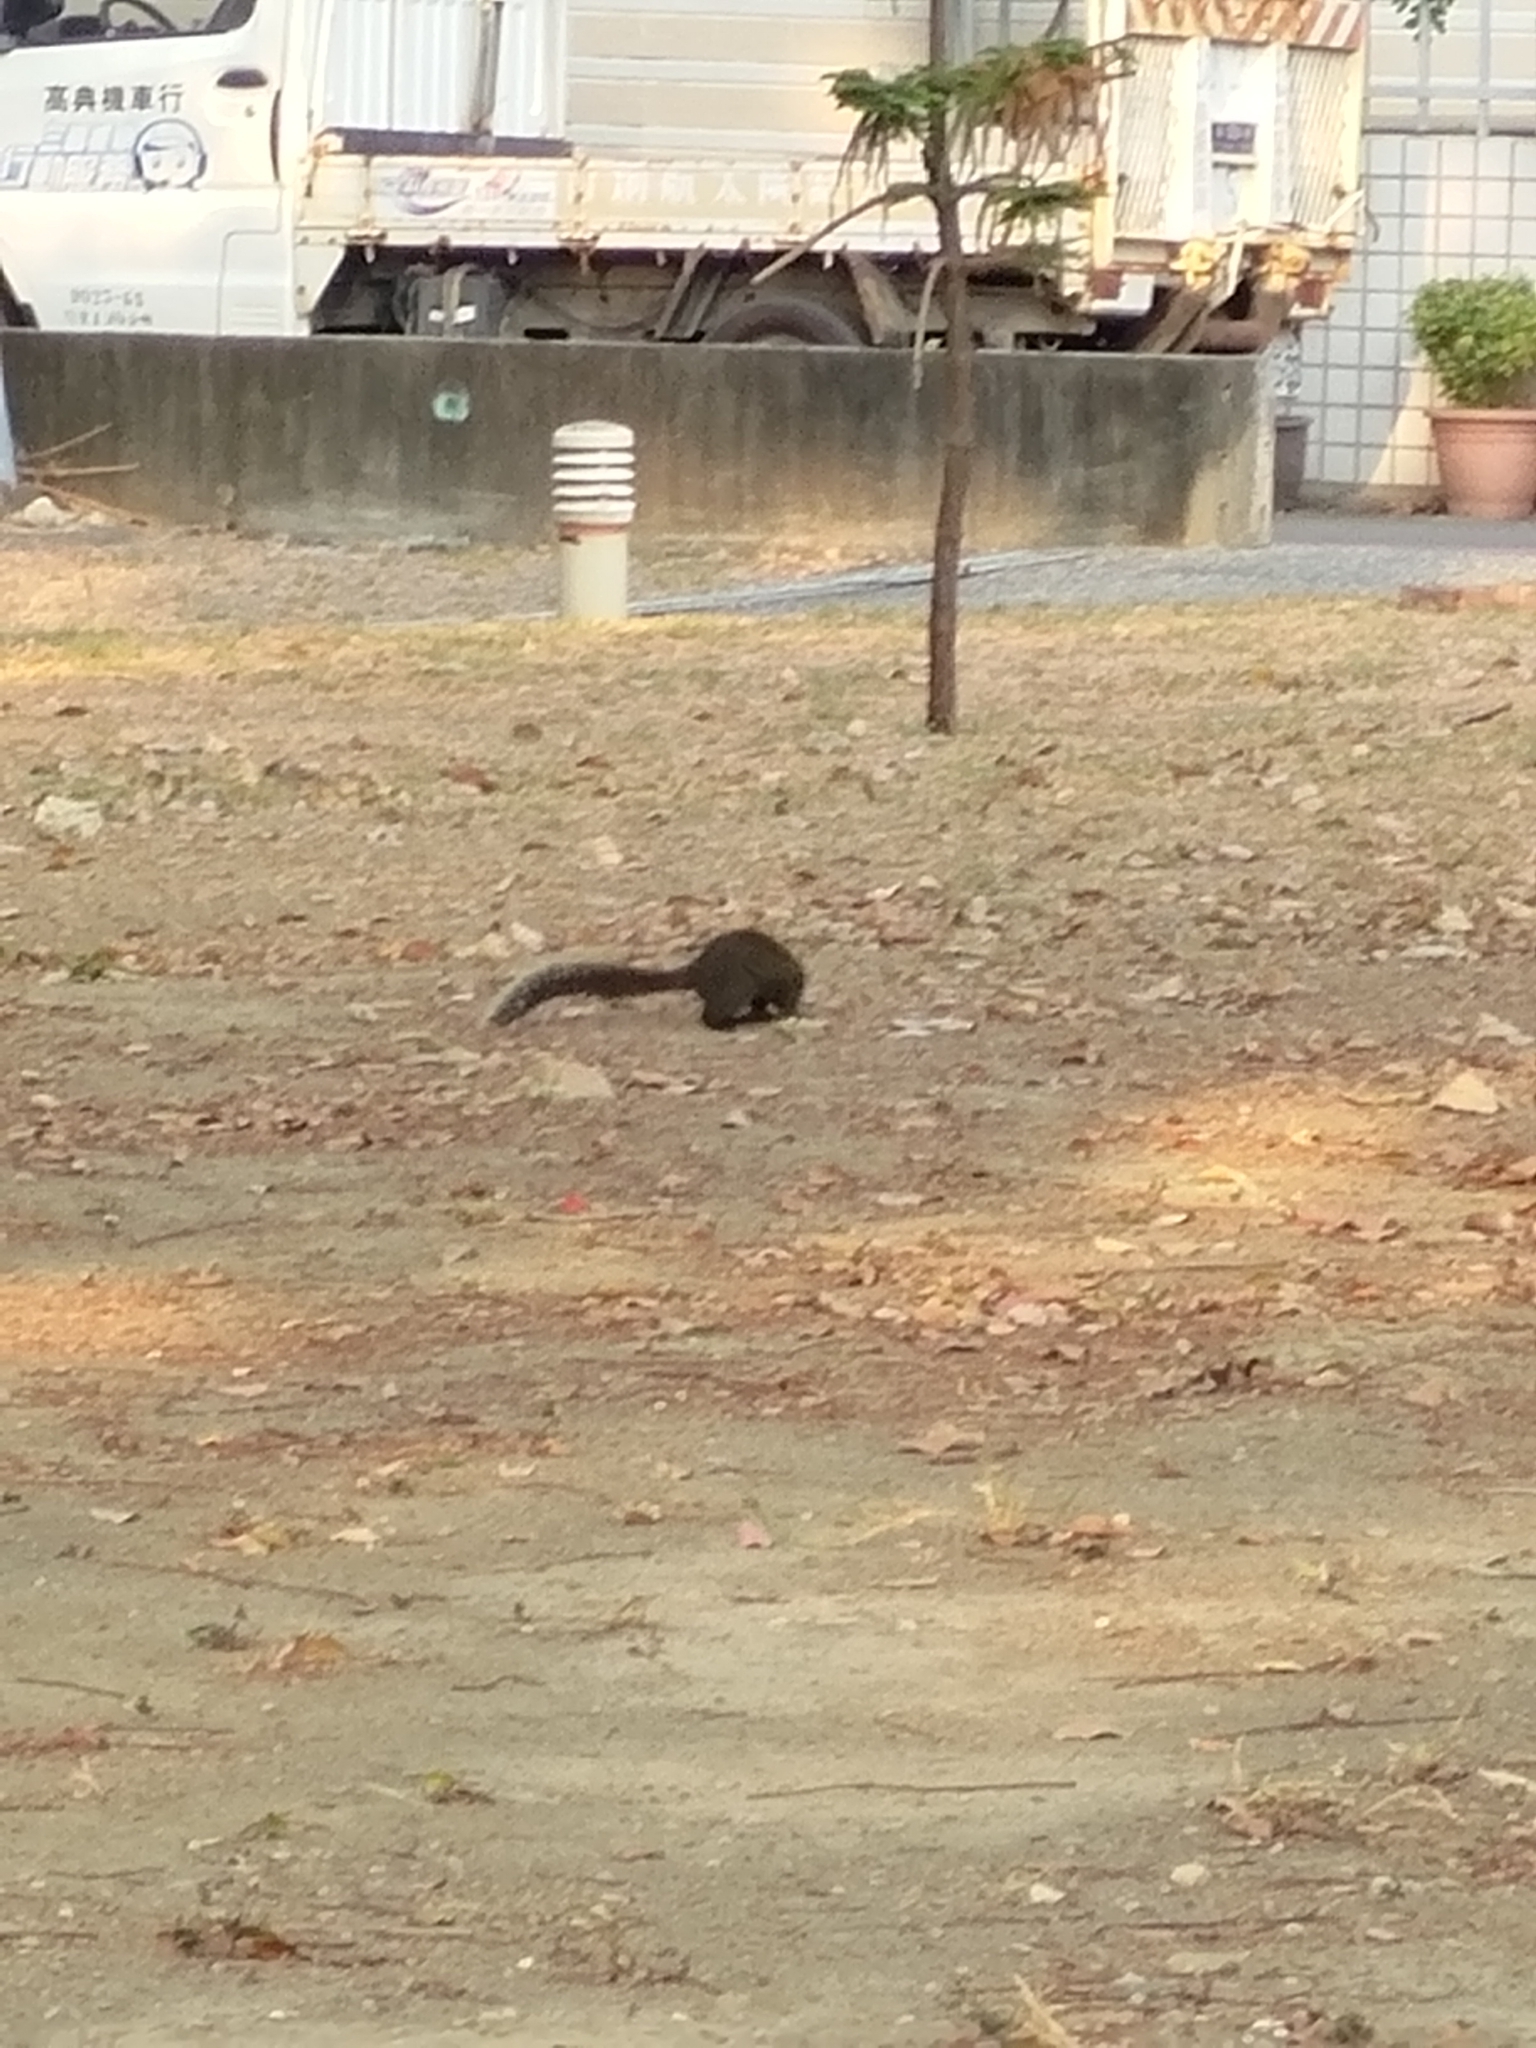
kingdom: Animalia
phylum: Chordata
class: Mammalia
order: Rodentia
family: Sciuridae
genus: Callosciurus
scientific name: Callosciurus erythraeus
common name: Pallas's squirrel
